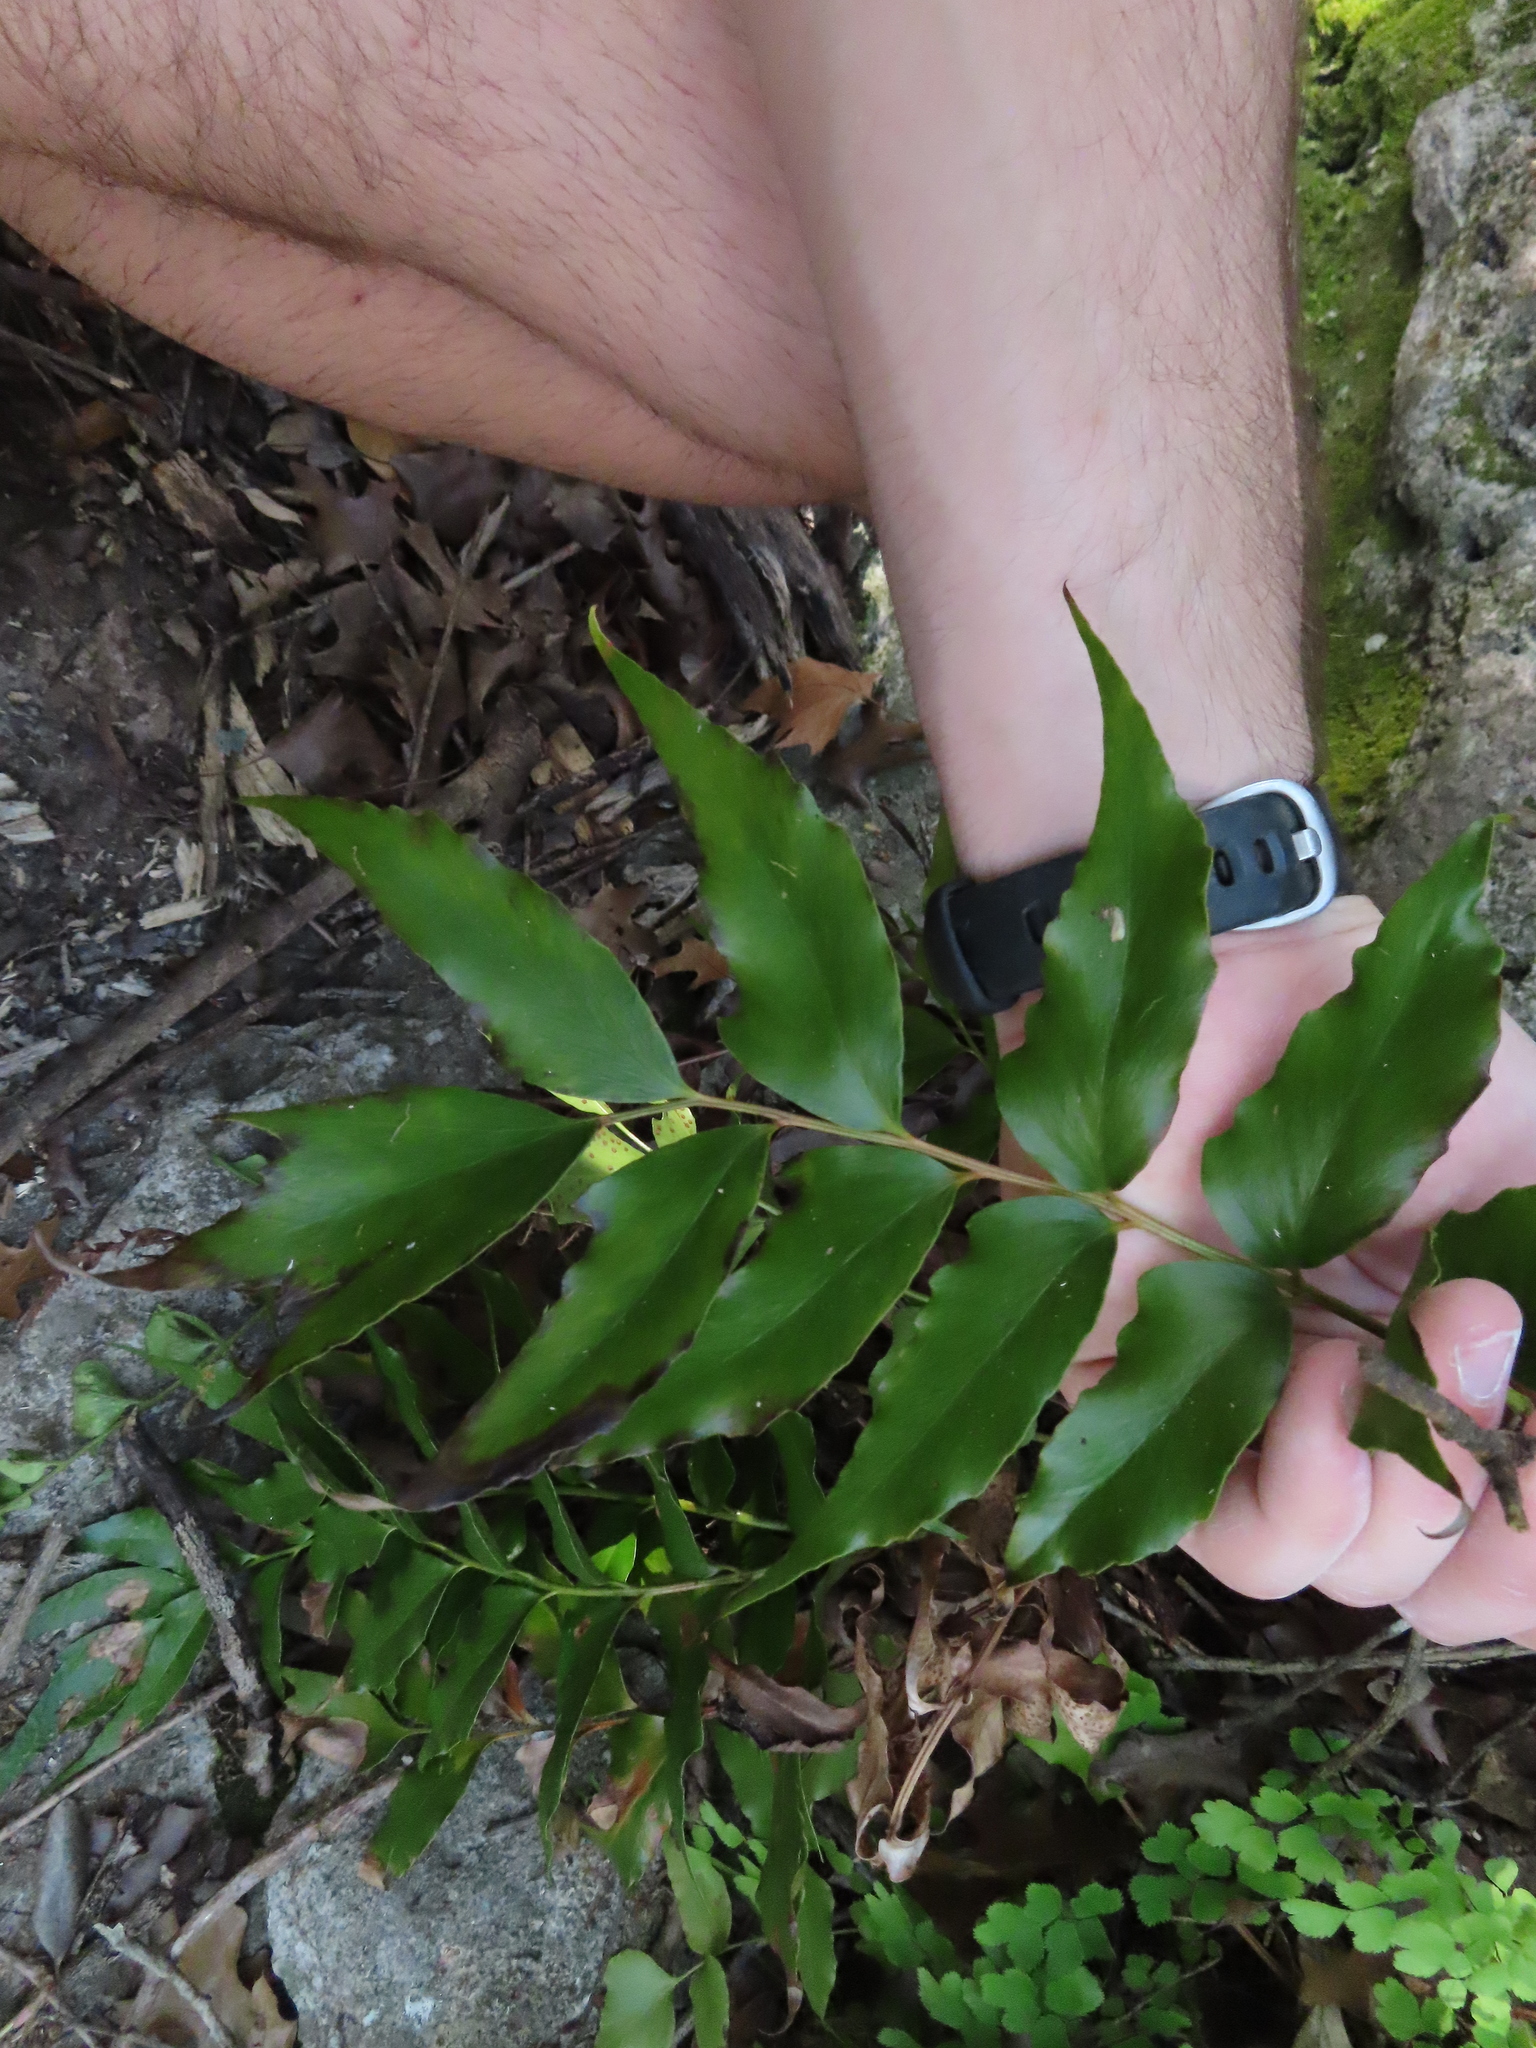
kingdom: Plantae
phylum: Tracheophyta
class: Polypodiopsida
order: Polypodiales
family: Dryopteridaceae
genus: Cyrtomium
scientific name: Cyrtomium falcatum
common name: House holly-fern
